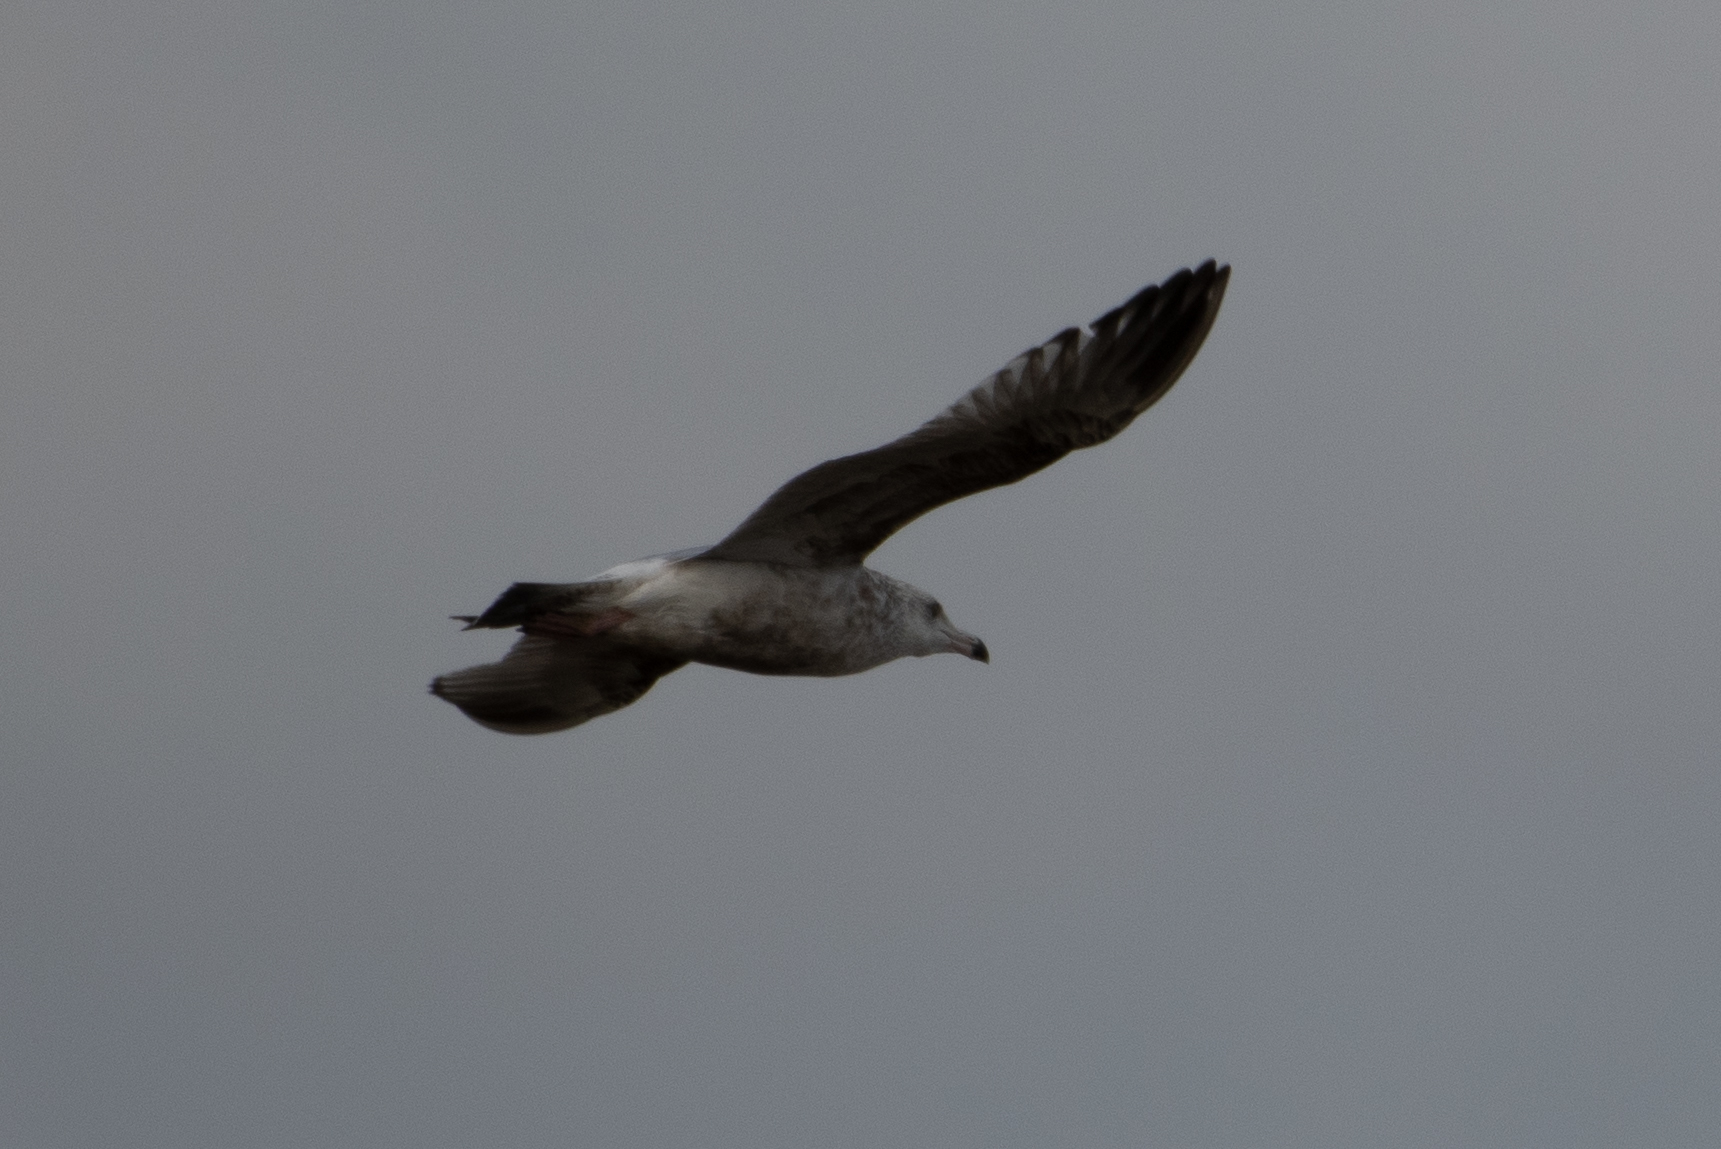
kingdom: Animalia
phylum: Chordata
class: Aves
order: Charadriiformes
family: Laridae
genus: Larus
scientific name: Larus argentatus
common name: Herring gull
